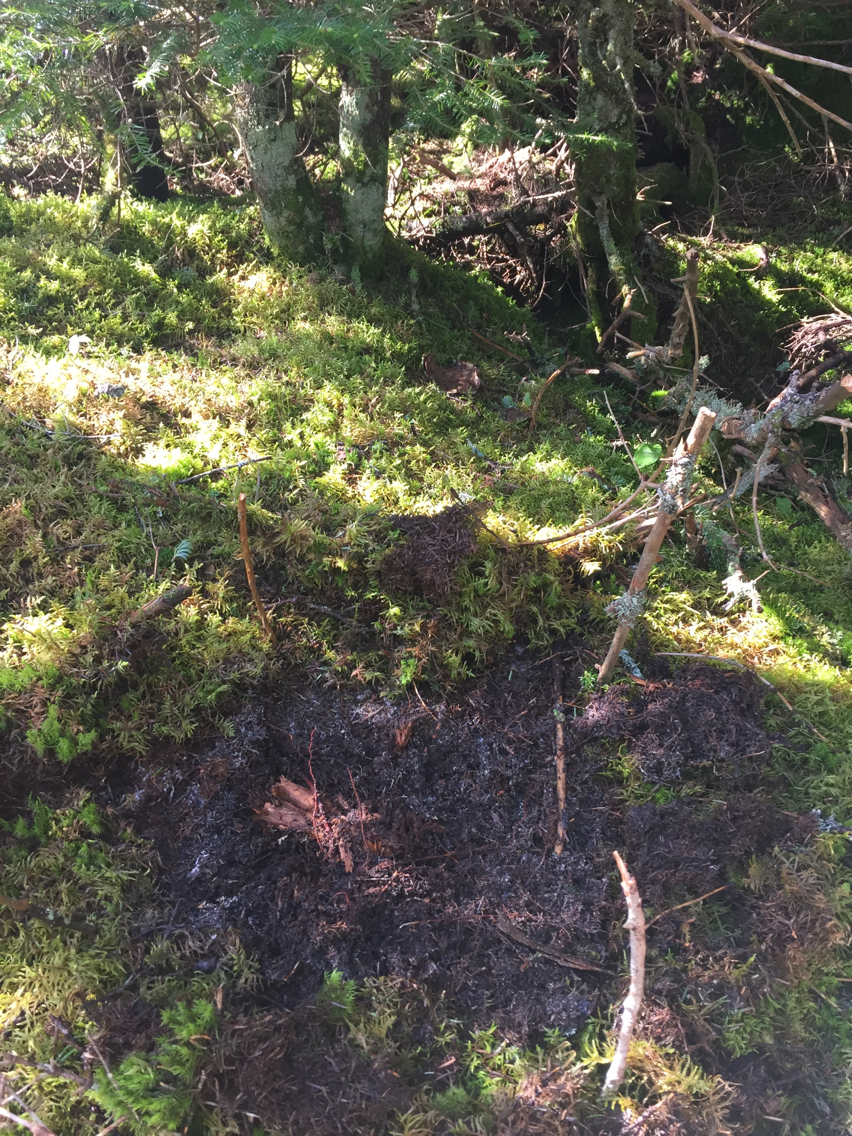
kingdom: Plantae
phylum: Tracheophyta
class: Pinopsida
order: Pinales
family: Pinaceae
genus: Abies
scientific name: Abies balsamea
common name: Balsam fir
